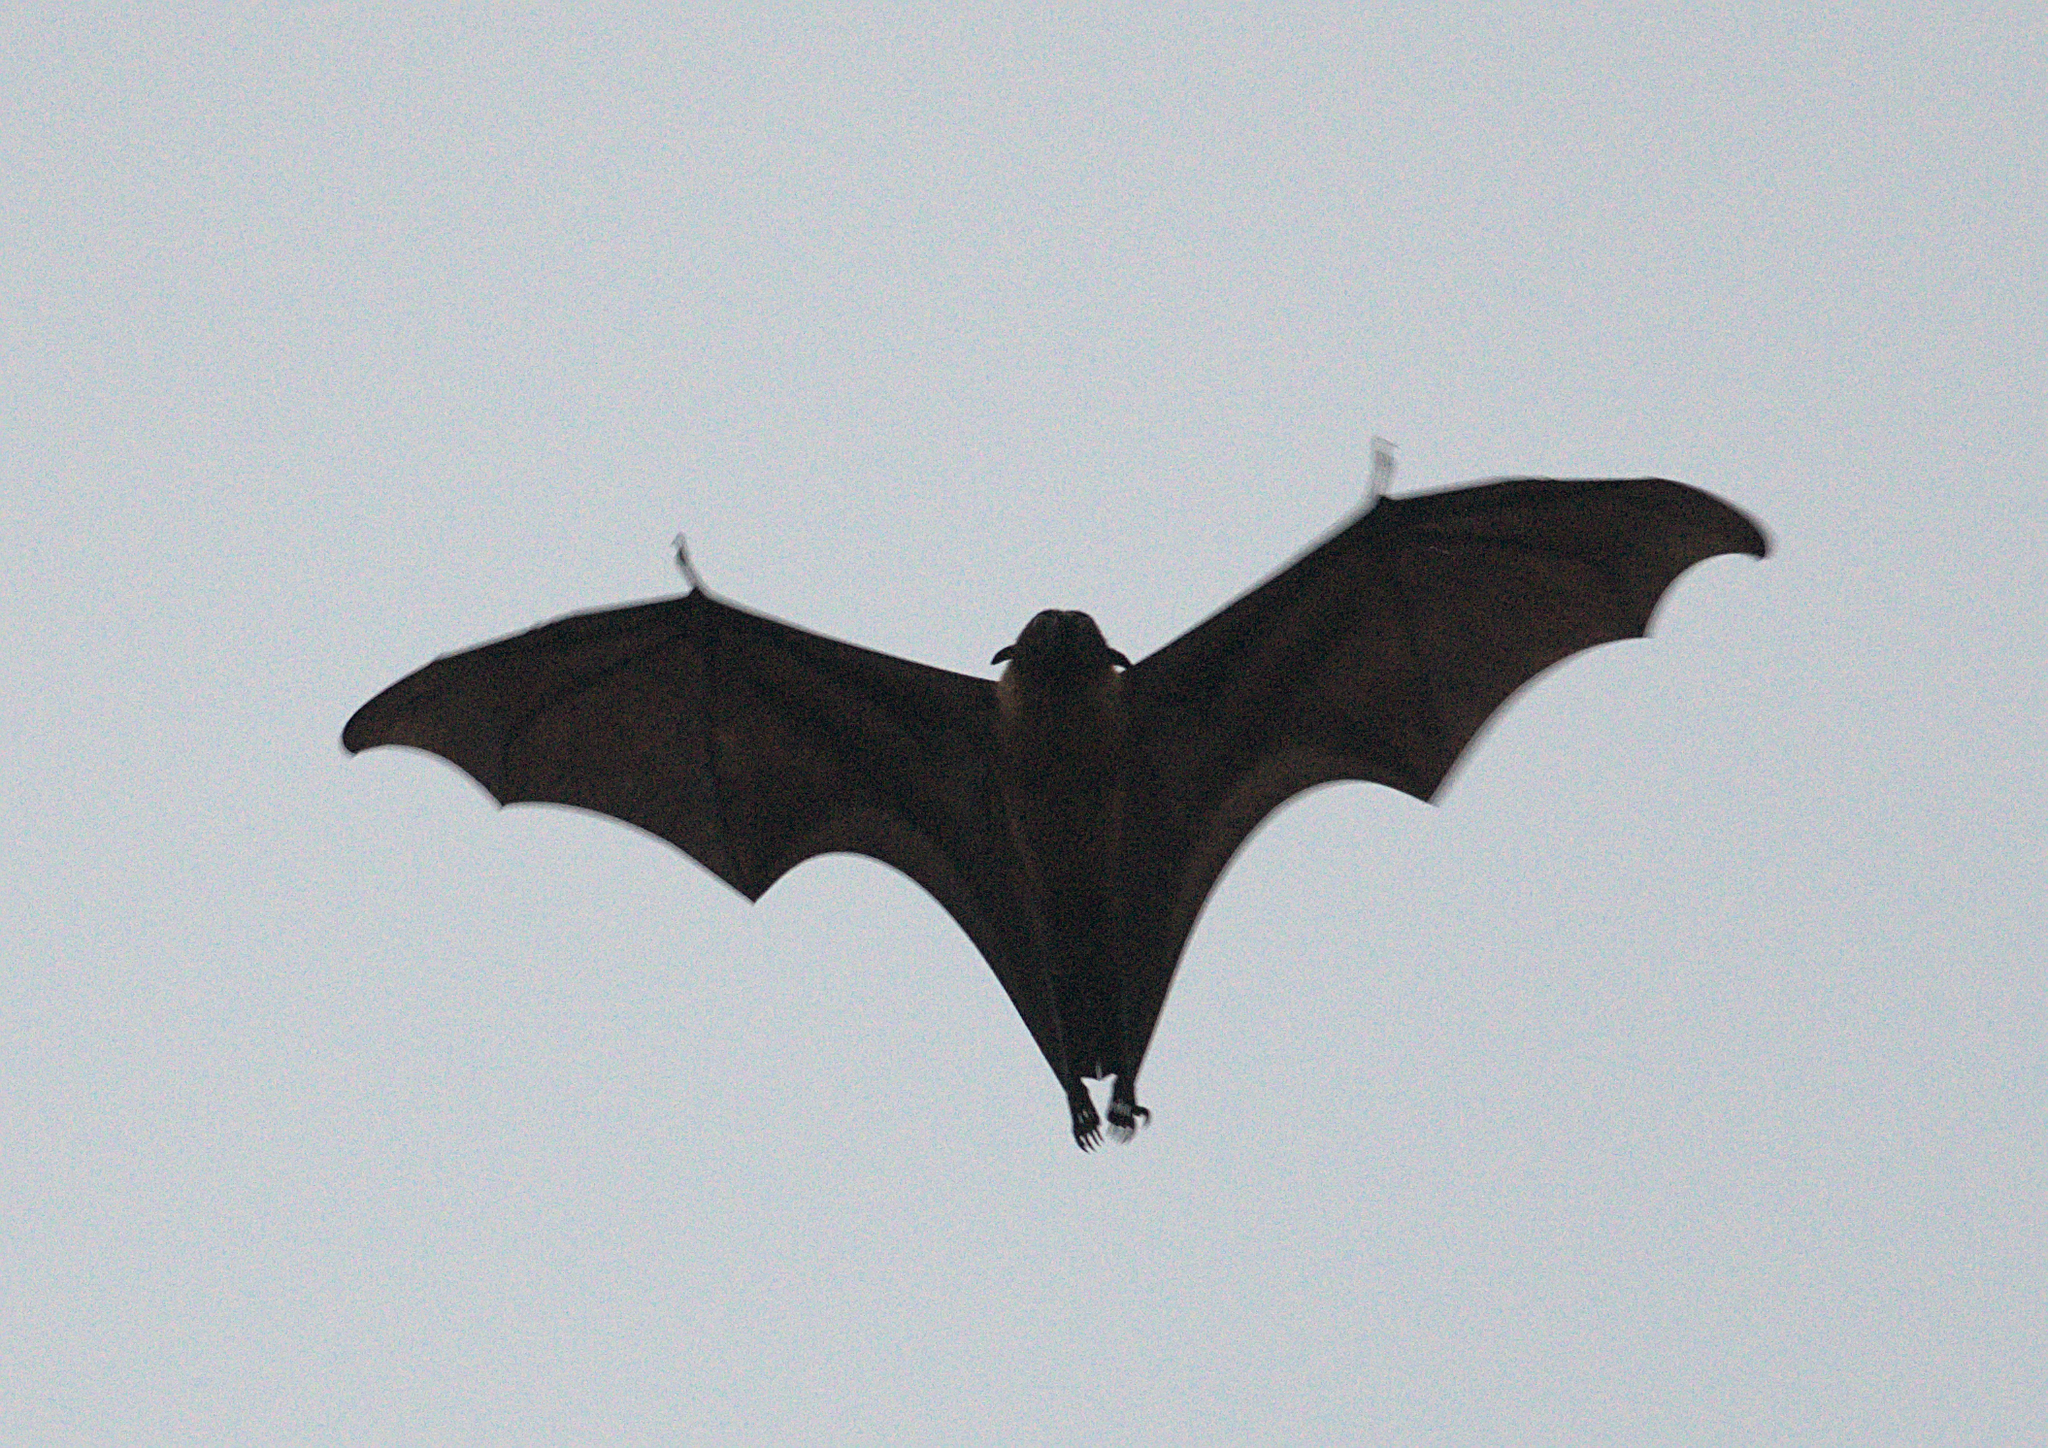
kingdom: Animalia
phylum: Chordata
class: Mammalia
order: Chiroptera
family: Pteropodidae
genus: Pteropus
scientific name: Pteropus vampyrus
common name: Large flying fox
